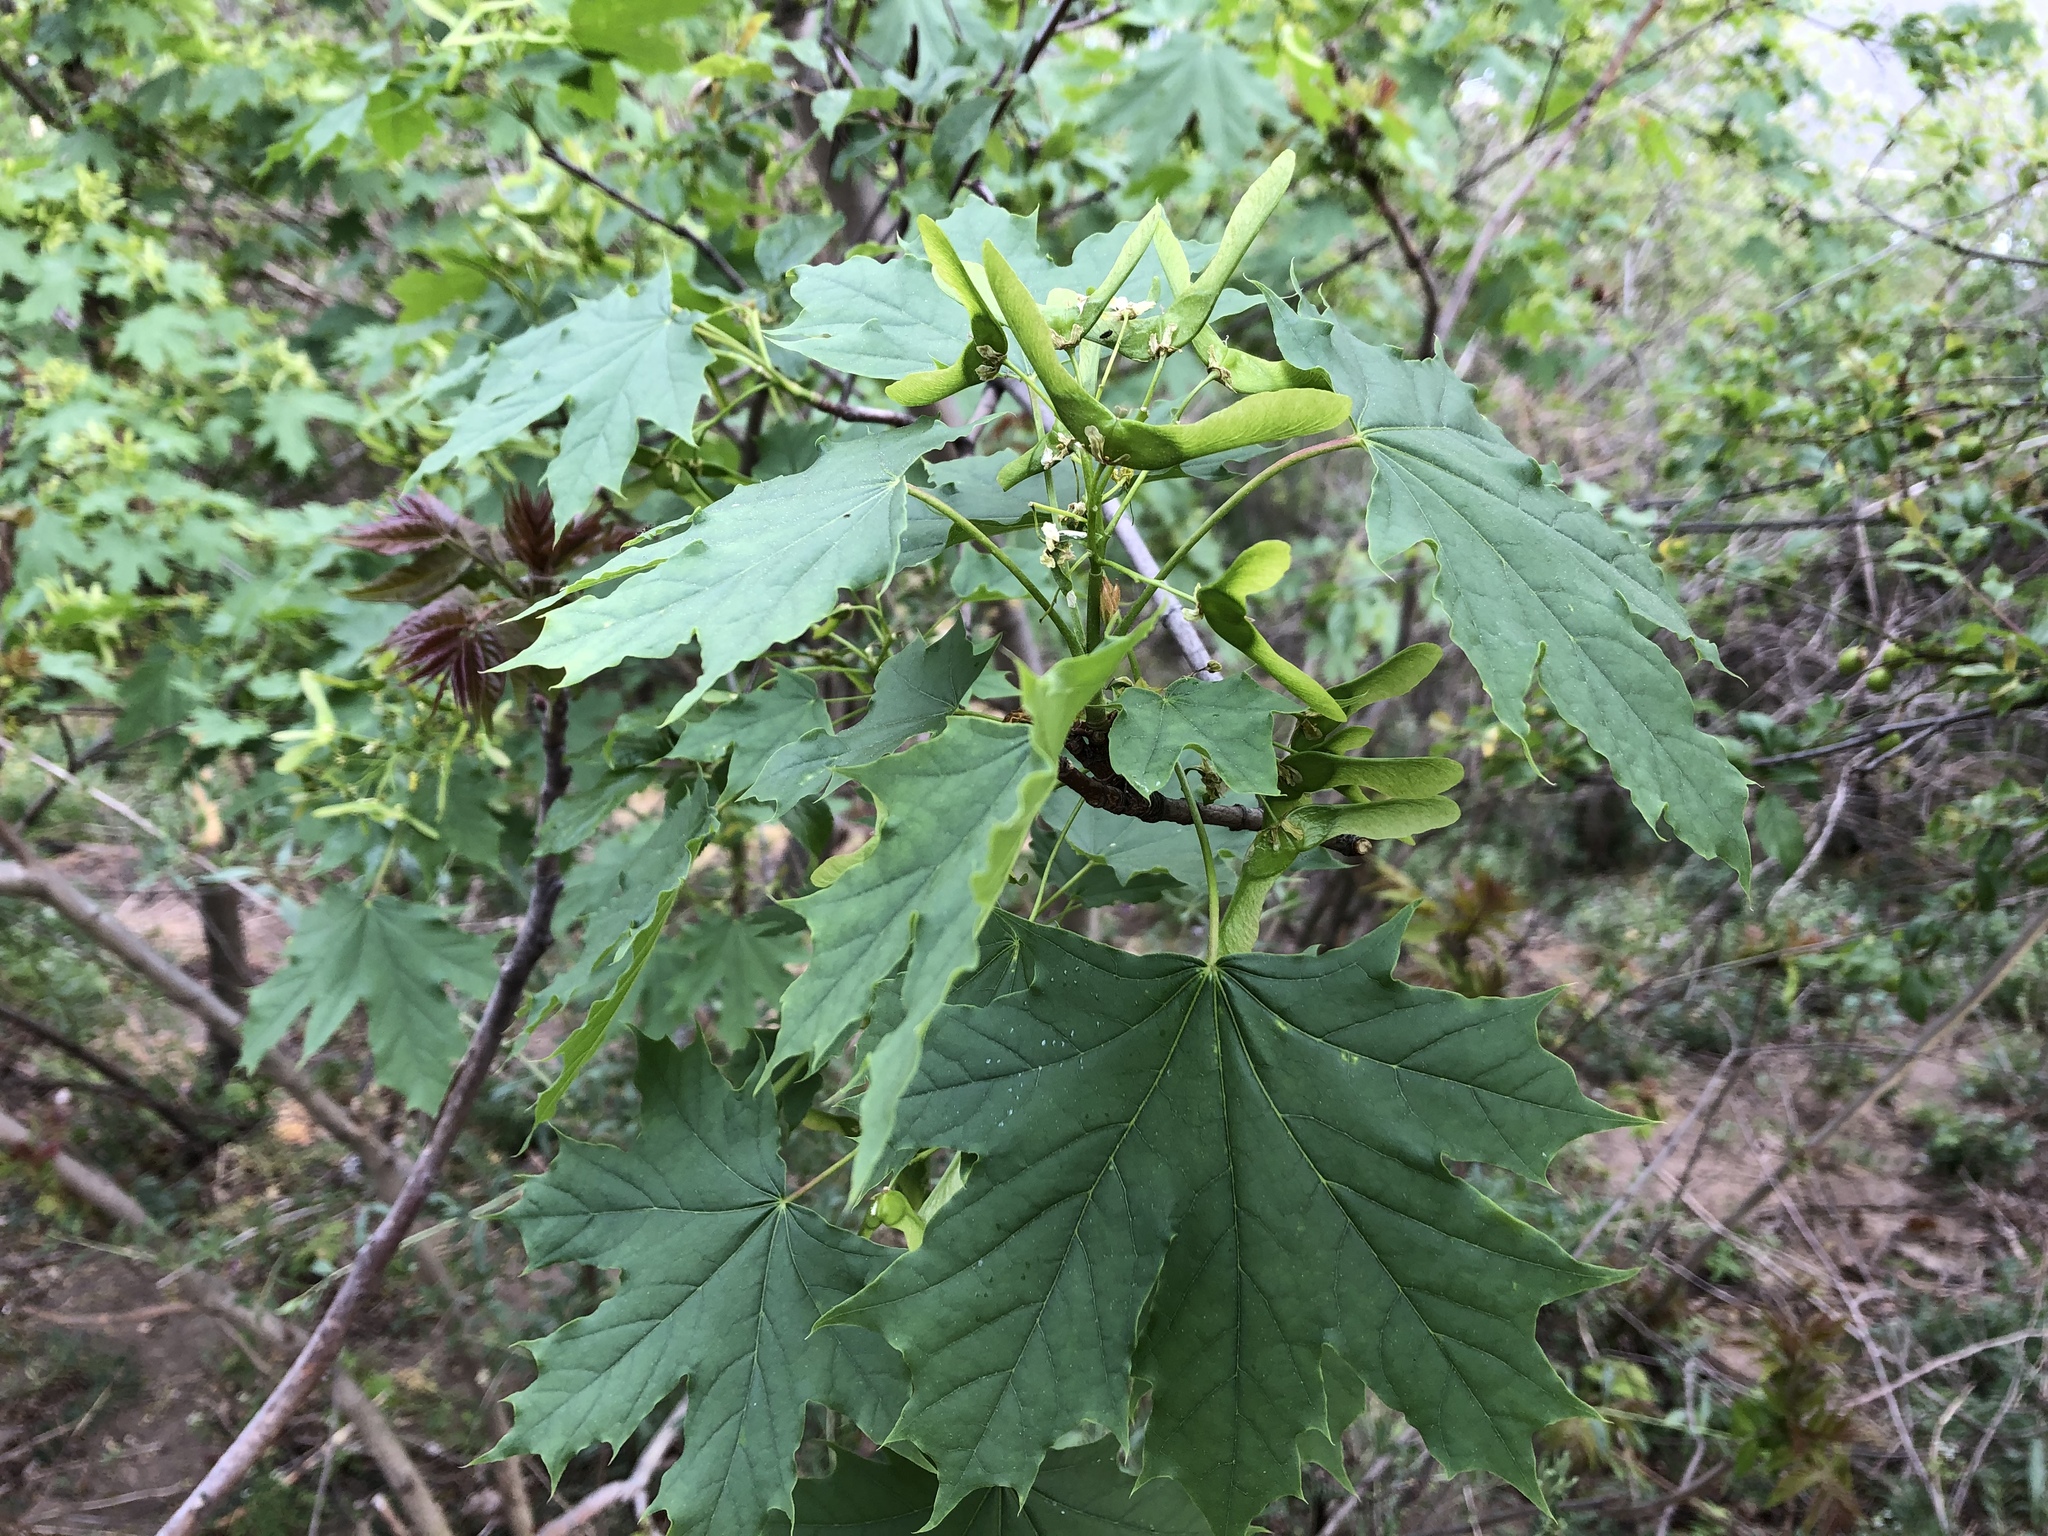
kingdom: Plantae
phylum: Tracheophyta
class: Magnoliopsida
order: Sapindales
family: Sapindaceae
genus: Acer
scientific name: Acer platanoides
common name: Norway maple
